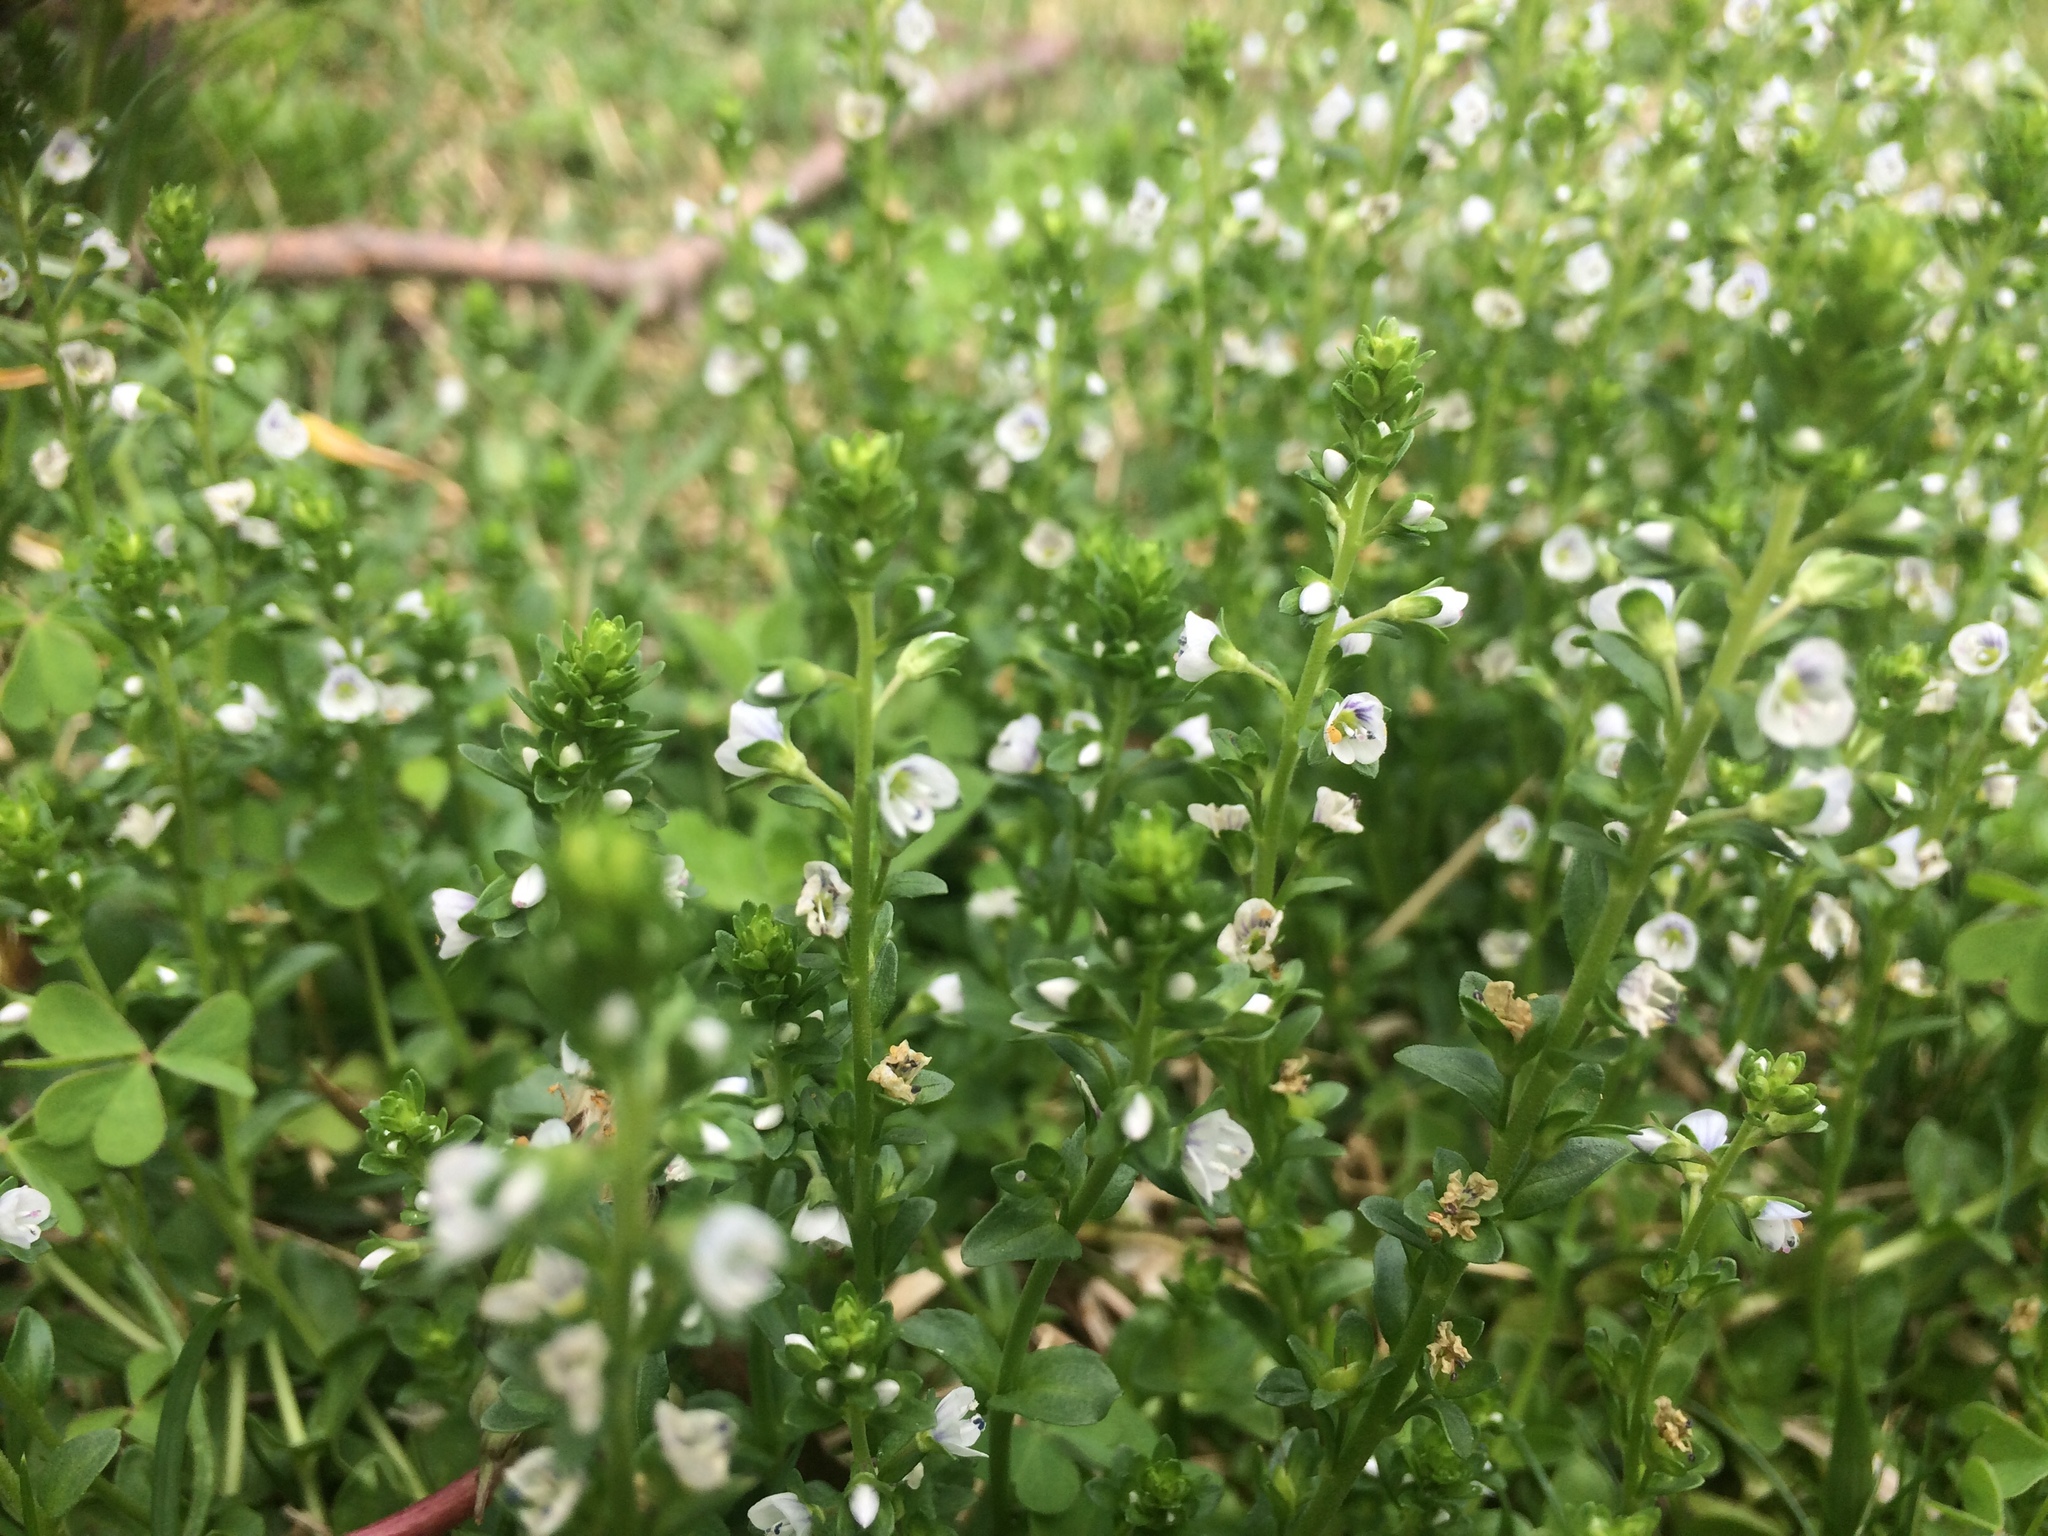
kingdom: Plantae
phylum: Tracheophyta
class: Magnoliopsida
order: Lamiales
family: Plantaginaceae
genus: Veronica
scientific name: Veronica serpyllifolia
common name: Thyme-leaved speedwell
